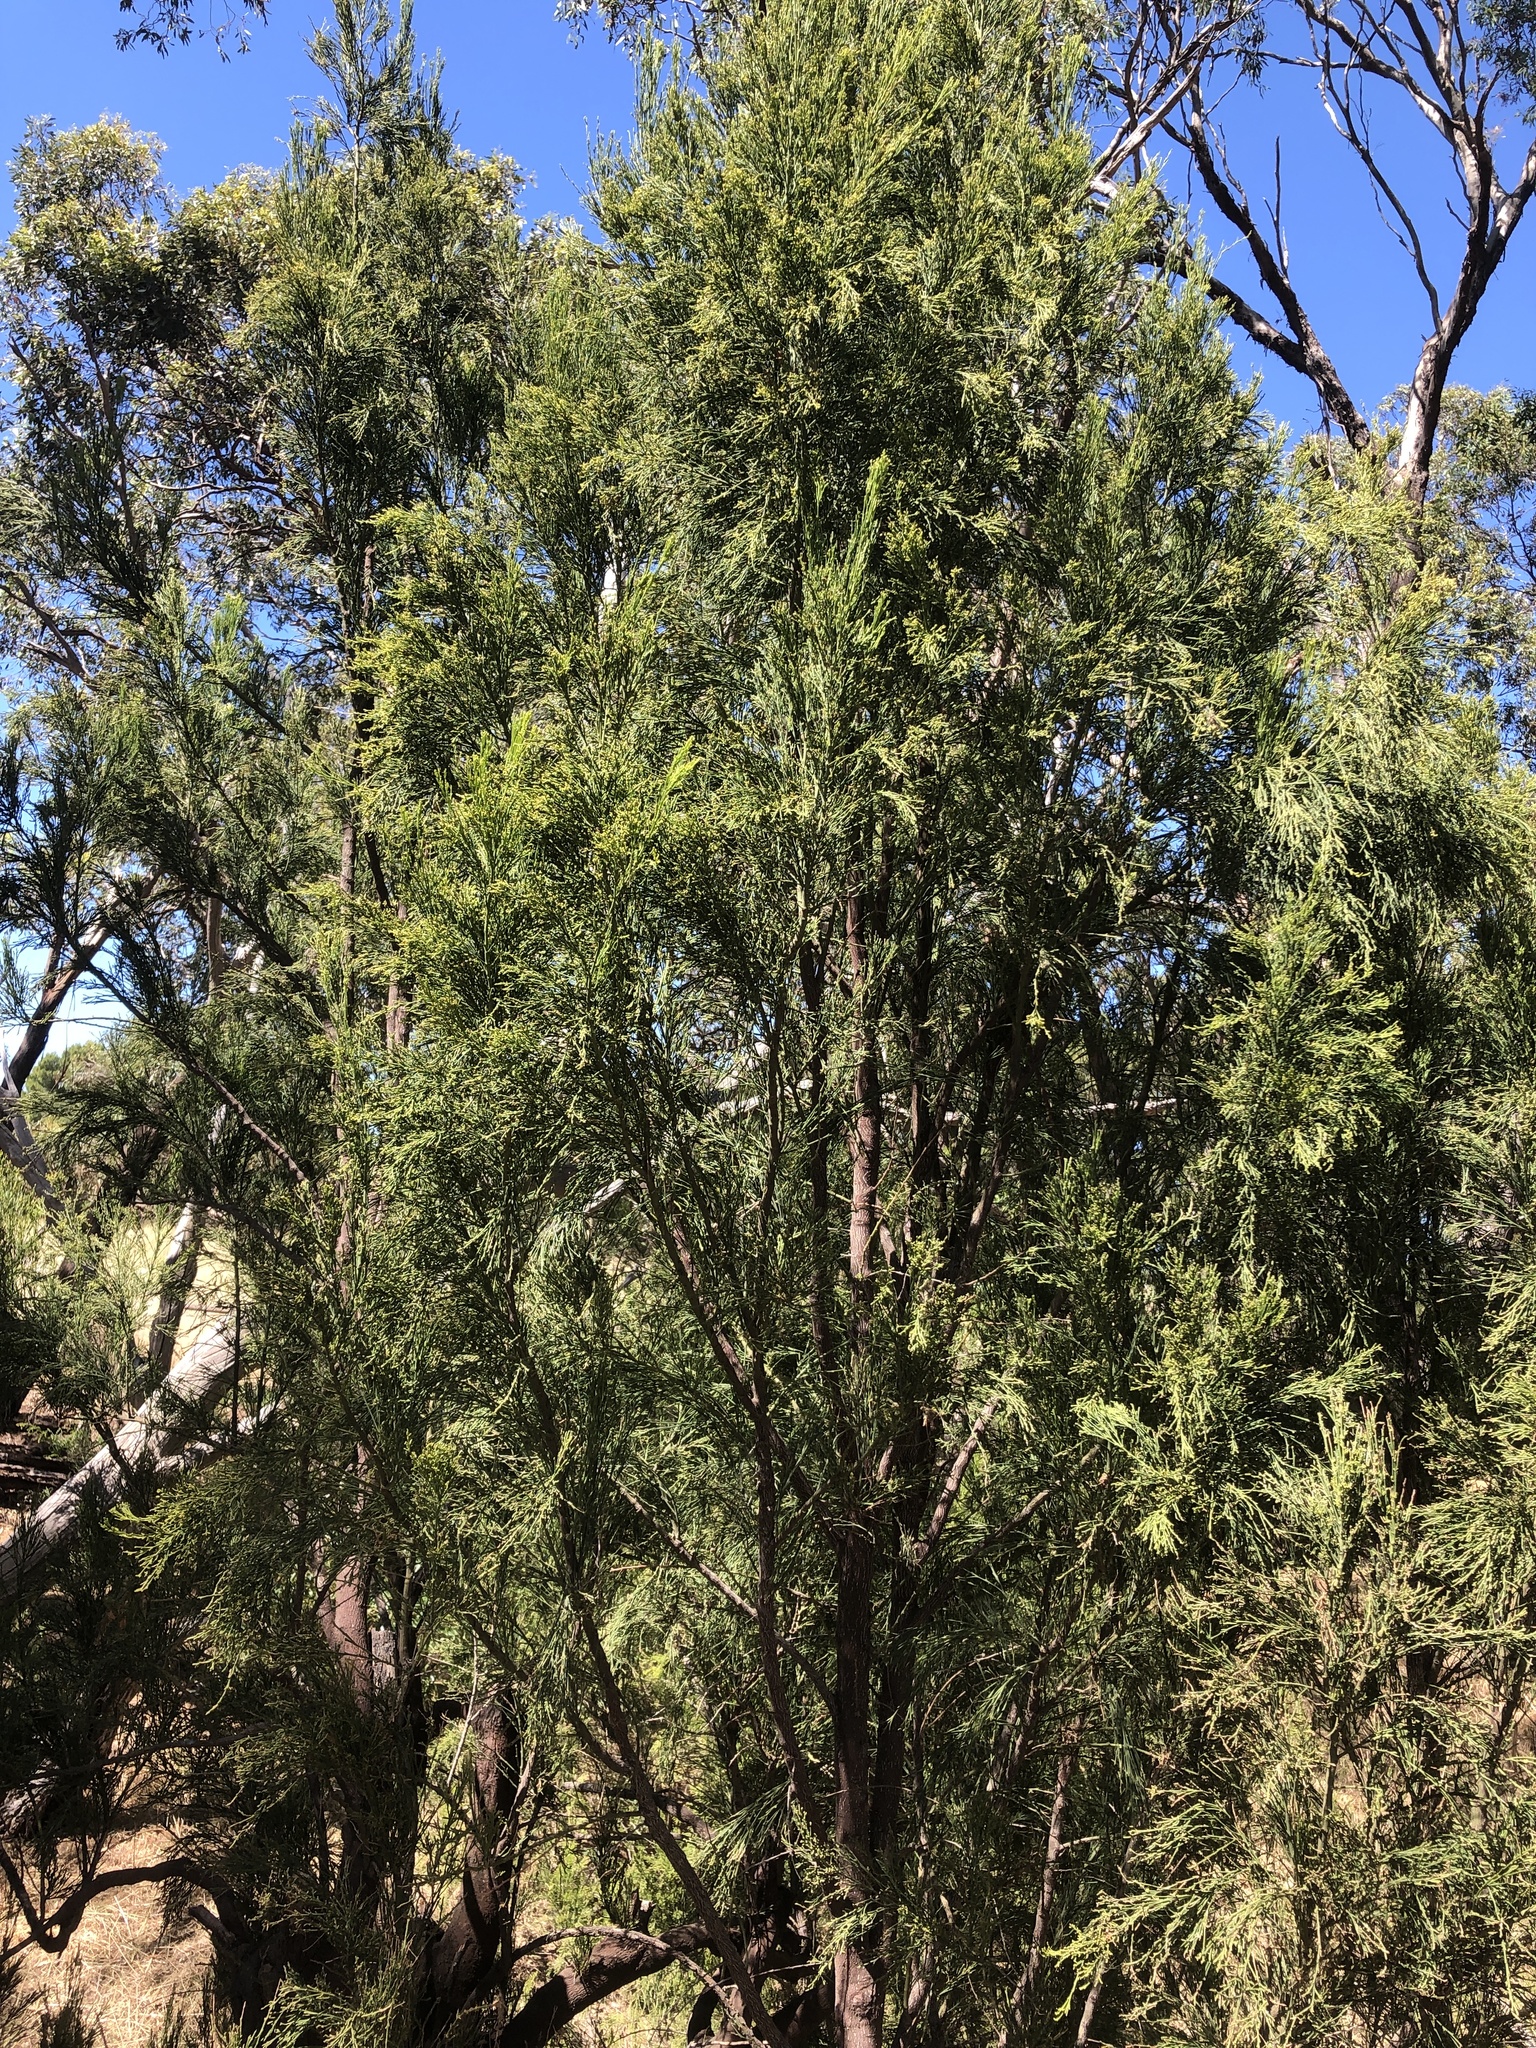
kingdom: Plantae
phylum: Tracheophyta
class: Magnoliopsida
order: Santalales
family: Santalaceae
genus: Exocarpos
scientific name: Exocarpos cupressiformis
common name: Cherry ballart
